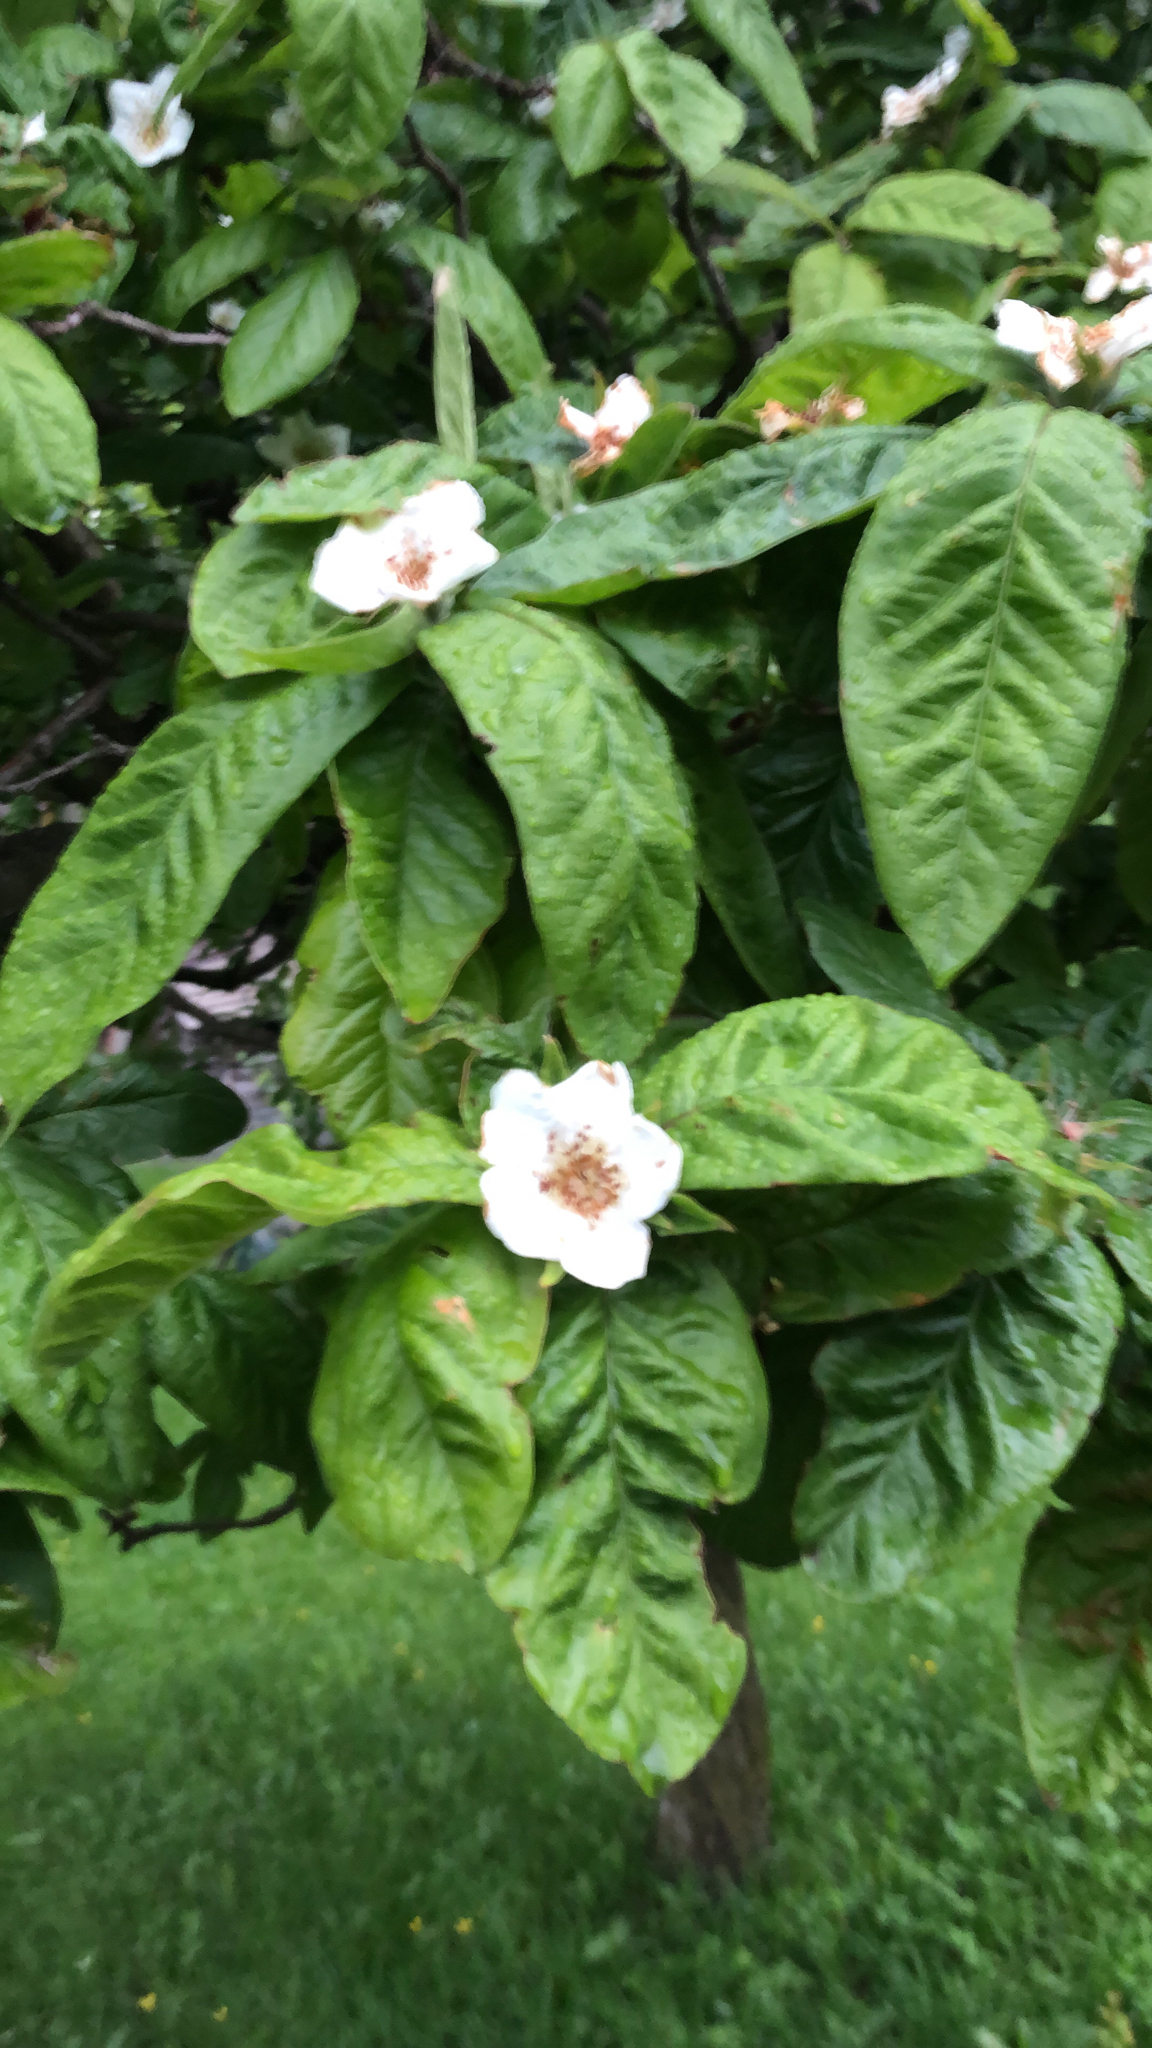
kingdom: Plantae
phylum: Tracheophyta
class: Magnoliopsida
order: Rosales
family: Rosaceae
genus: Mespilus
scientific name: Mespilus germanica
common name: Medlar
